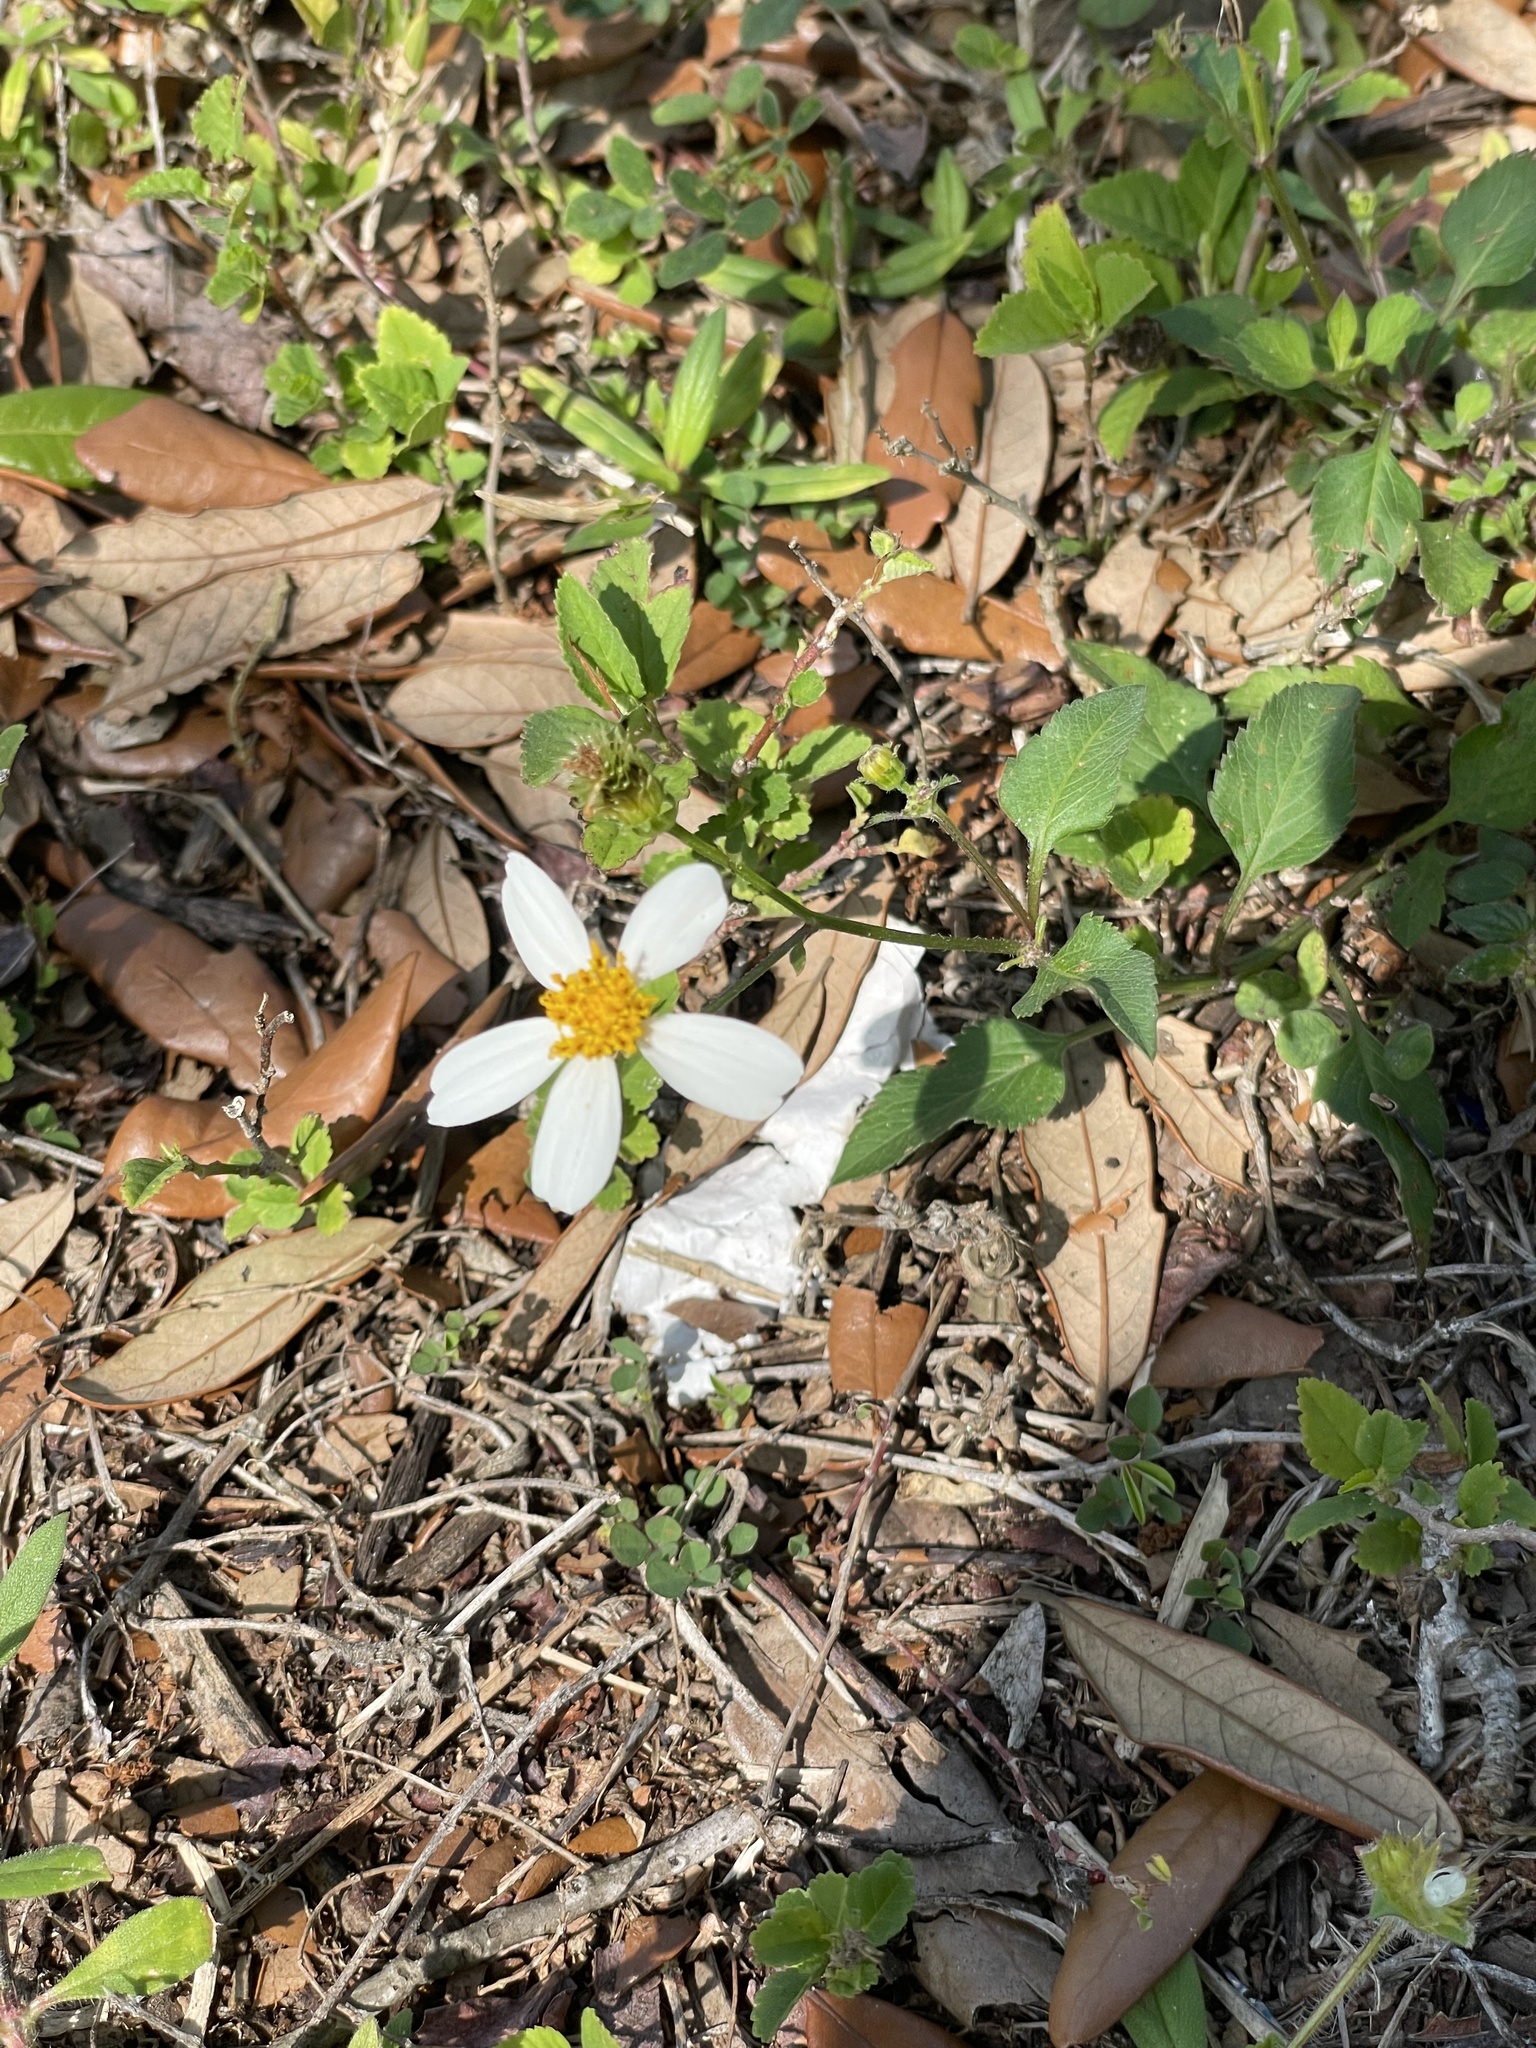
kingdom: Plantae
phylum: Tracheophyta
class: Magnoliopsida
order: Asterales
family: Asteraceae
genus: Bidens
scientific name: Bidens alba
